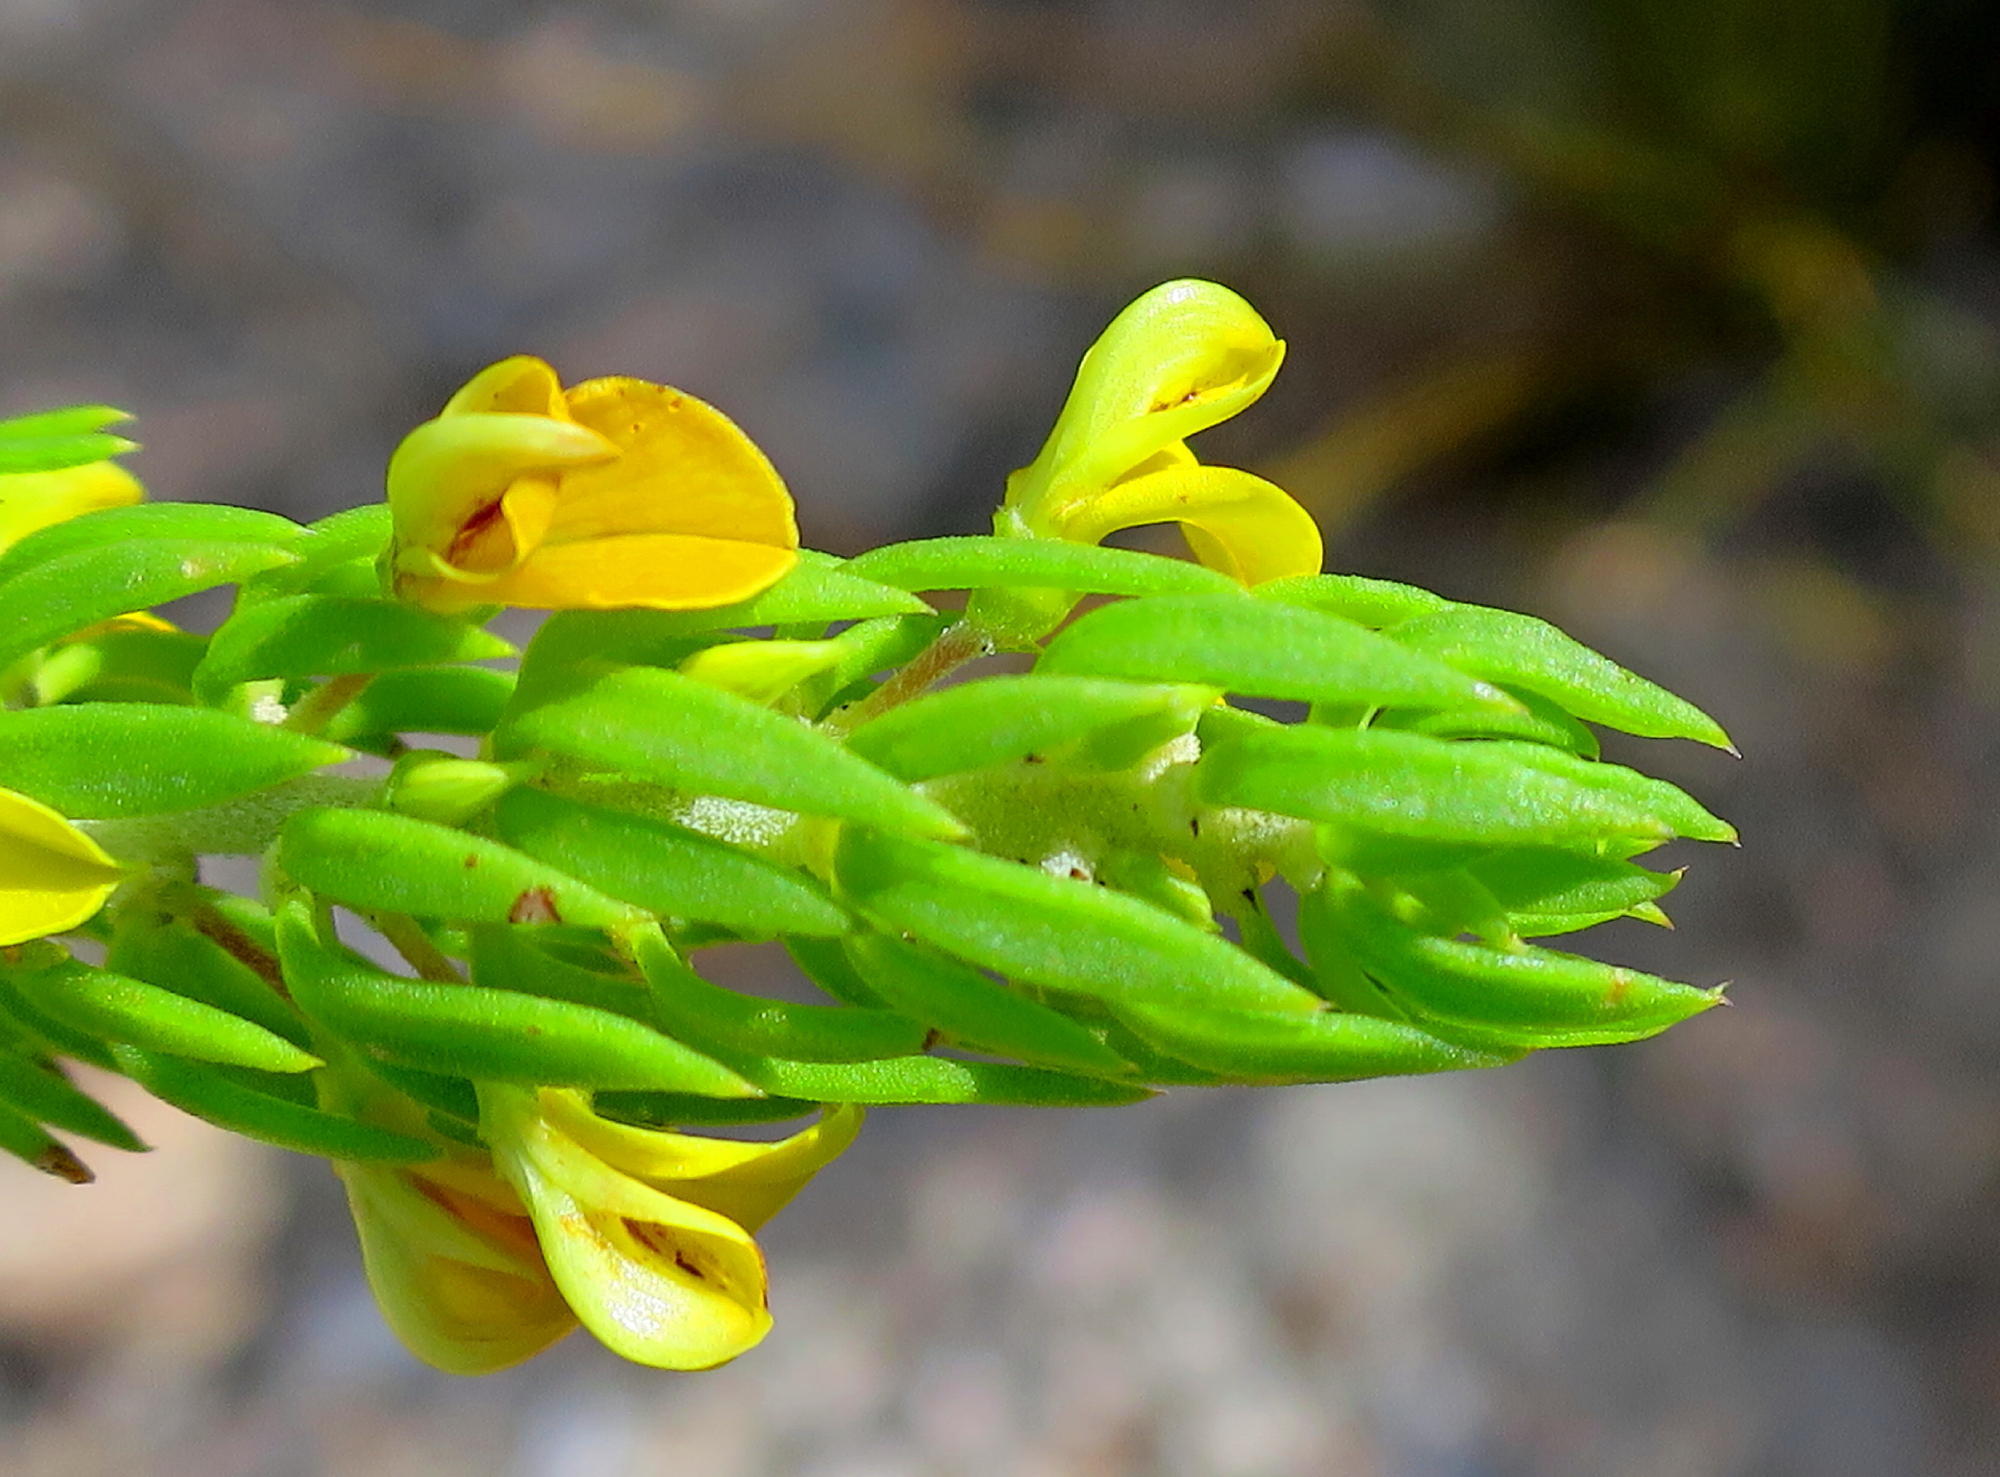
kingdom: Plantae
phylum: Tracheophyta
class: Magnoliopsida
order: Fabales
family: Fabaceae
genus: Aspalathus
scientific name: Aspalathus mundiana
